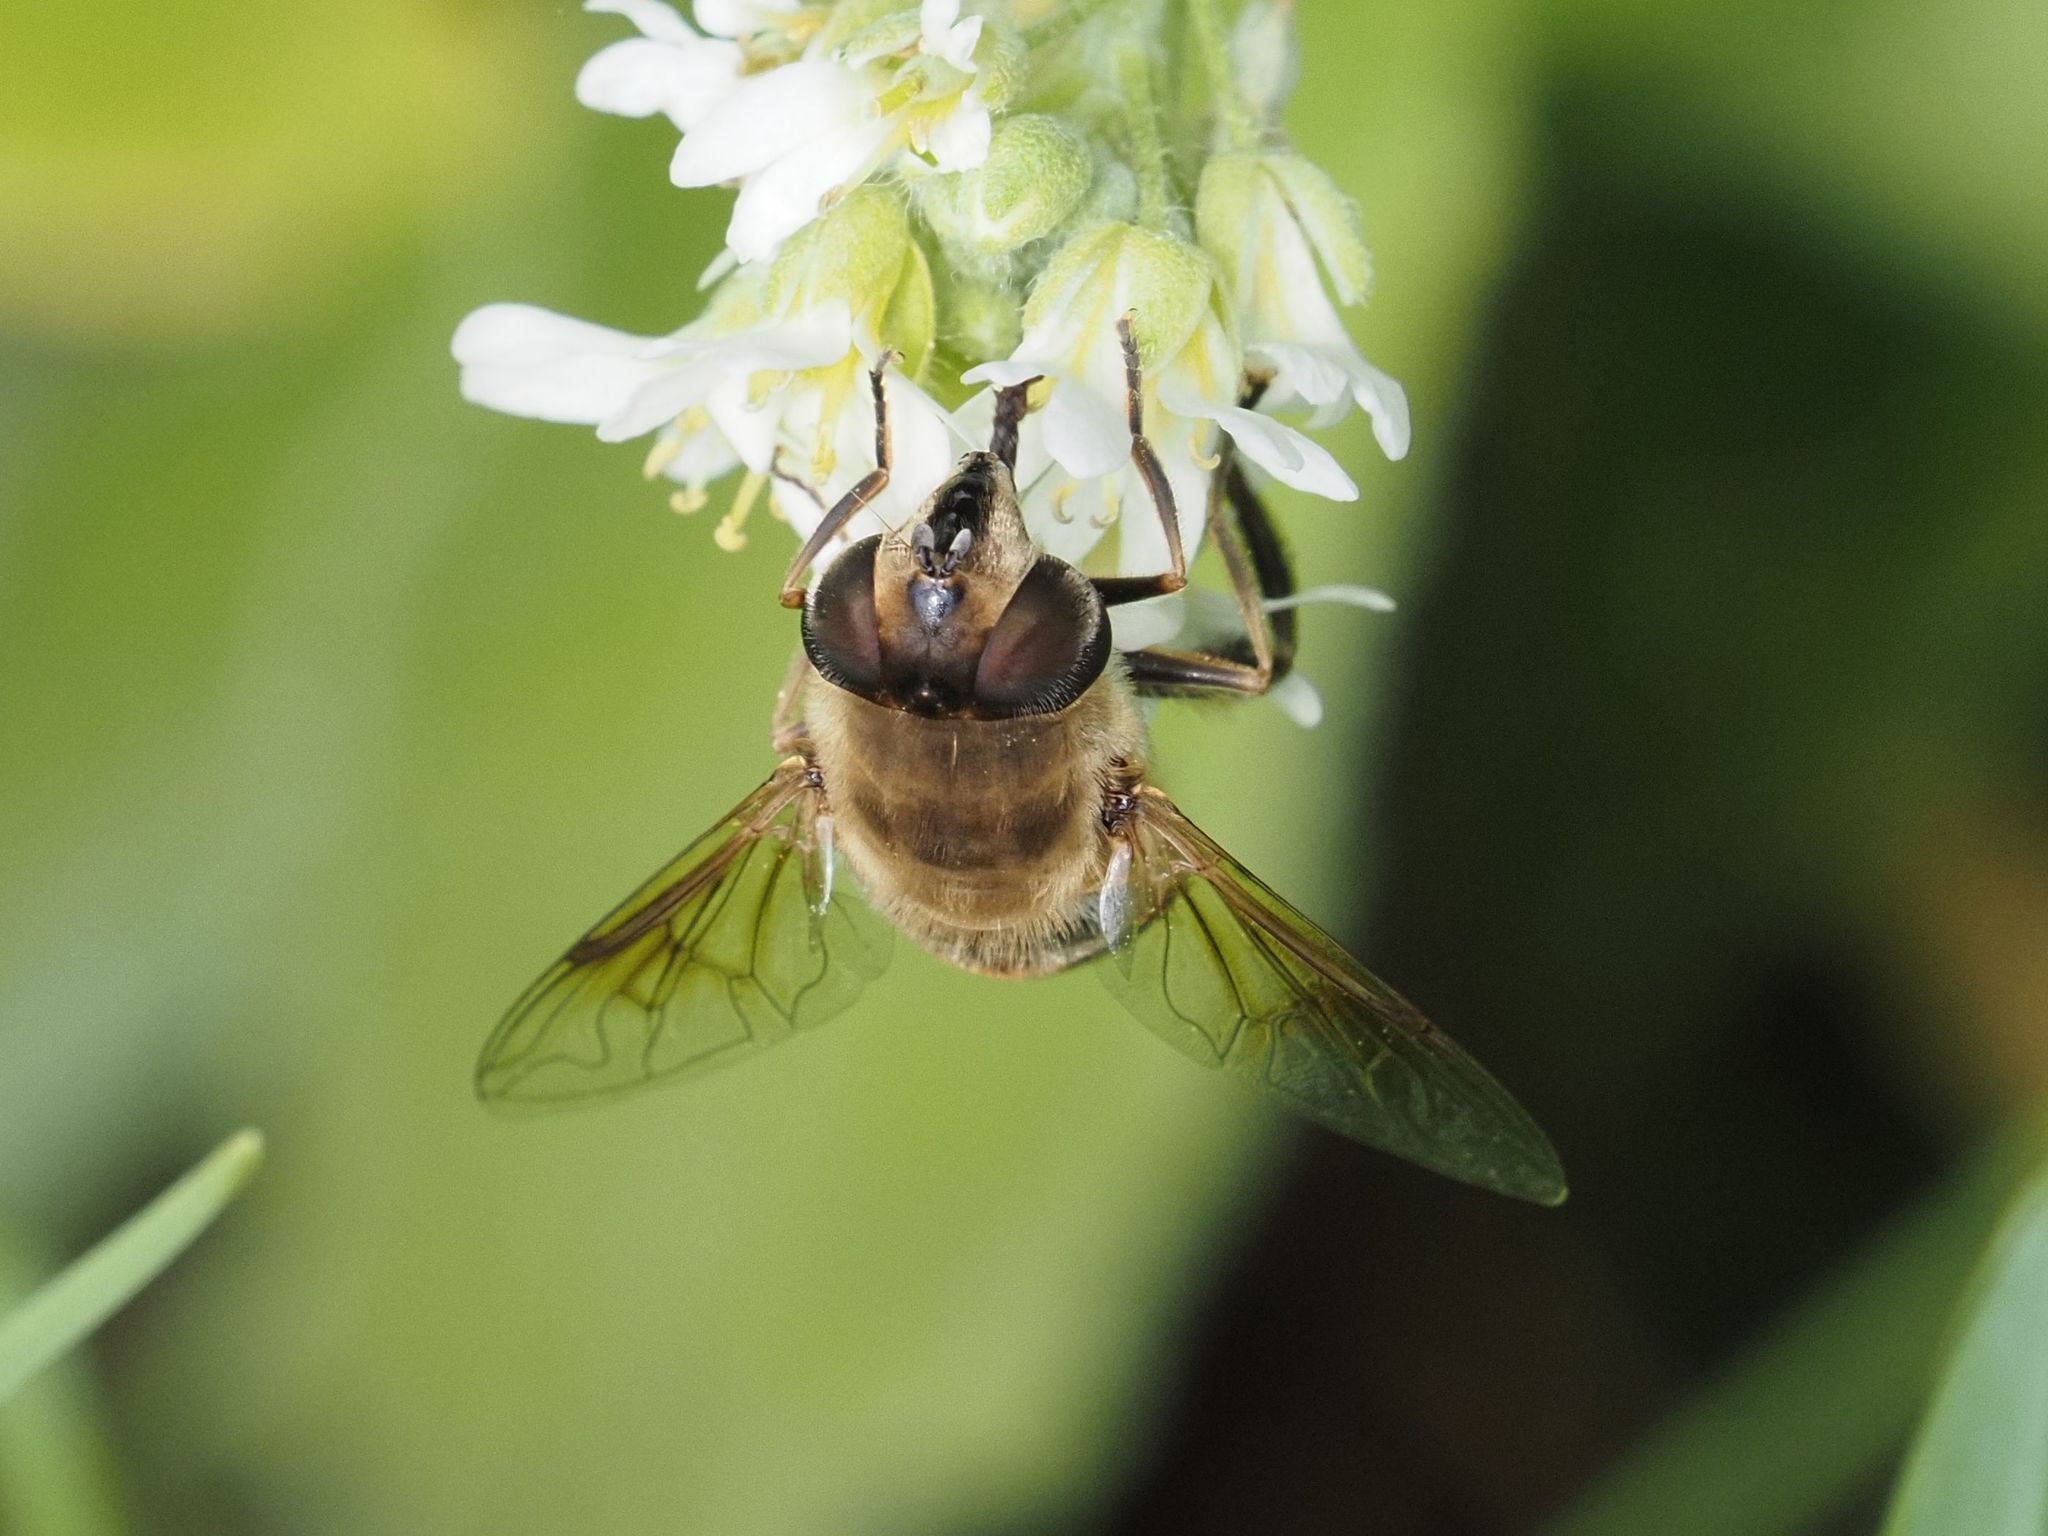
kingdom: Animalia
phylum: Arthropoda
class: Insecta
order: Diptera
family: Syrphidae
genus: Eristalis
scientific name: Eristalis tenax
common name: Drone fly
